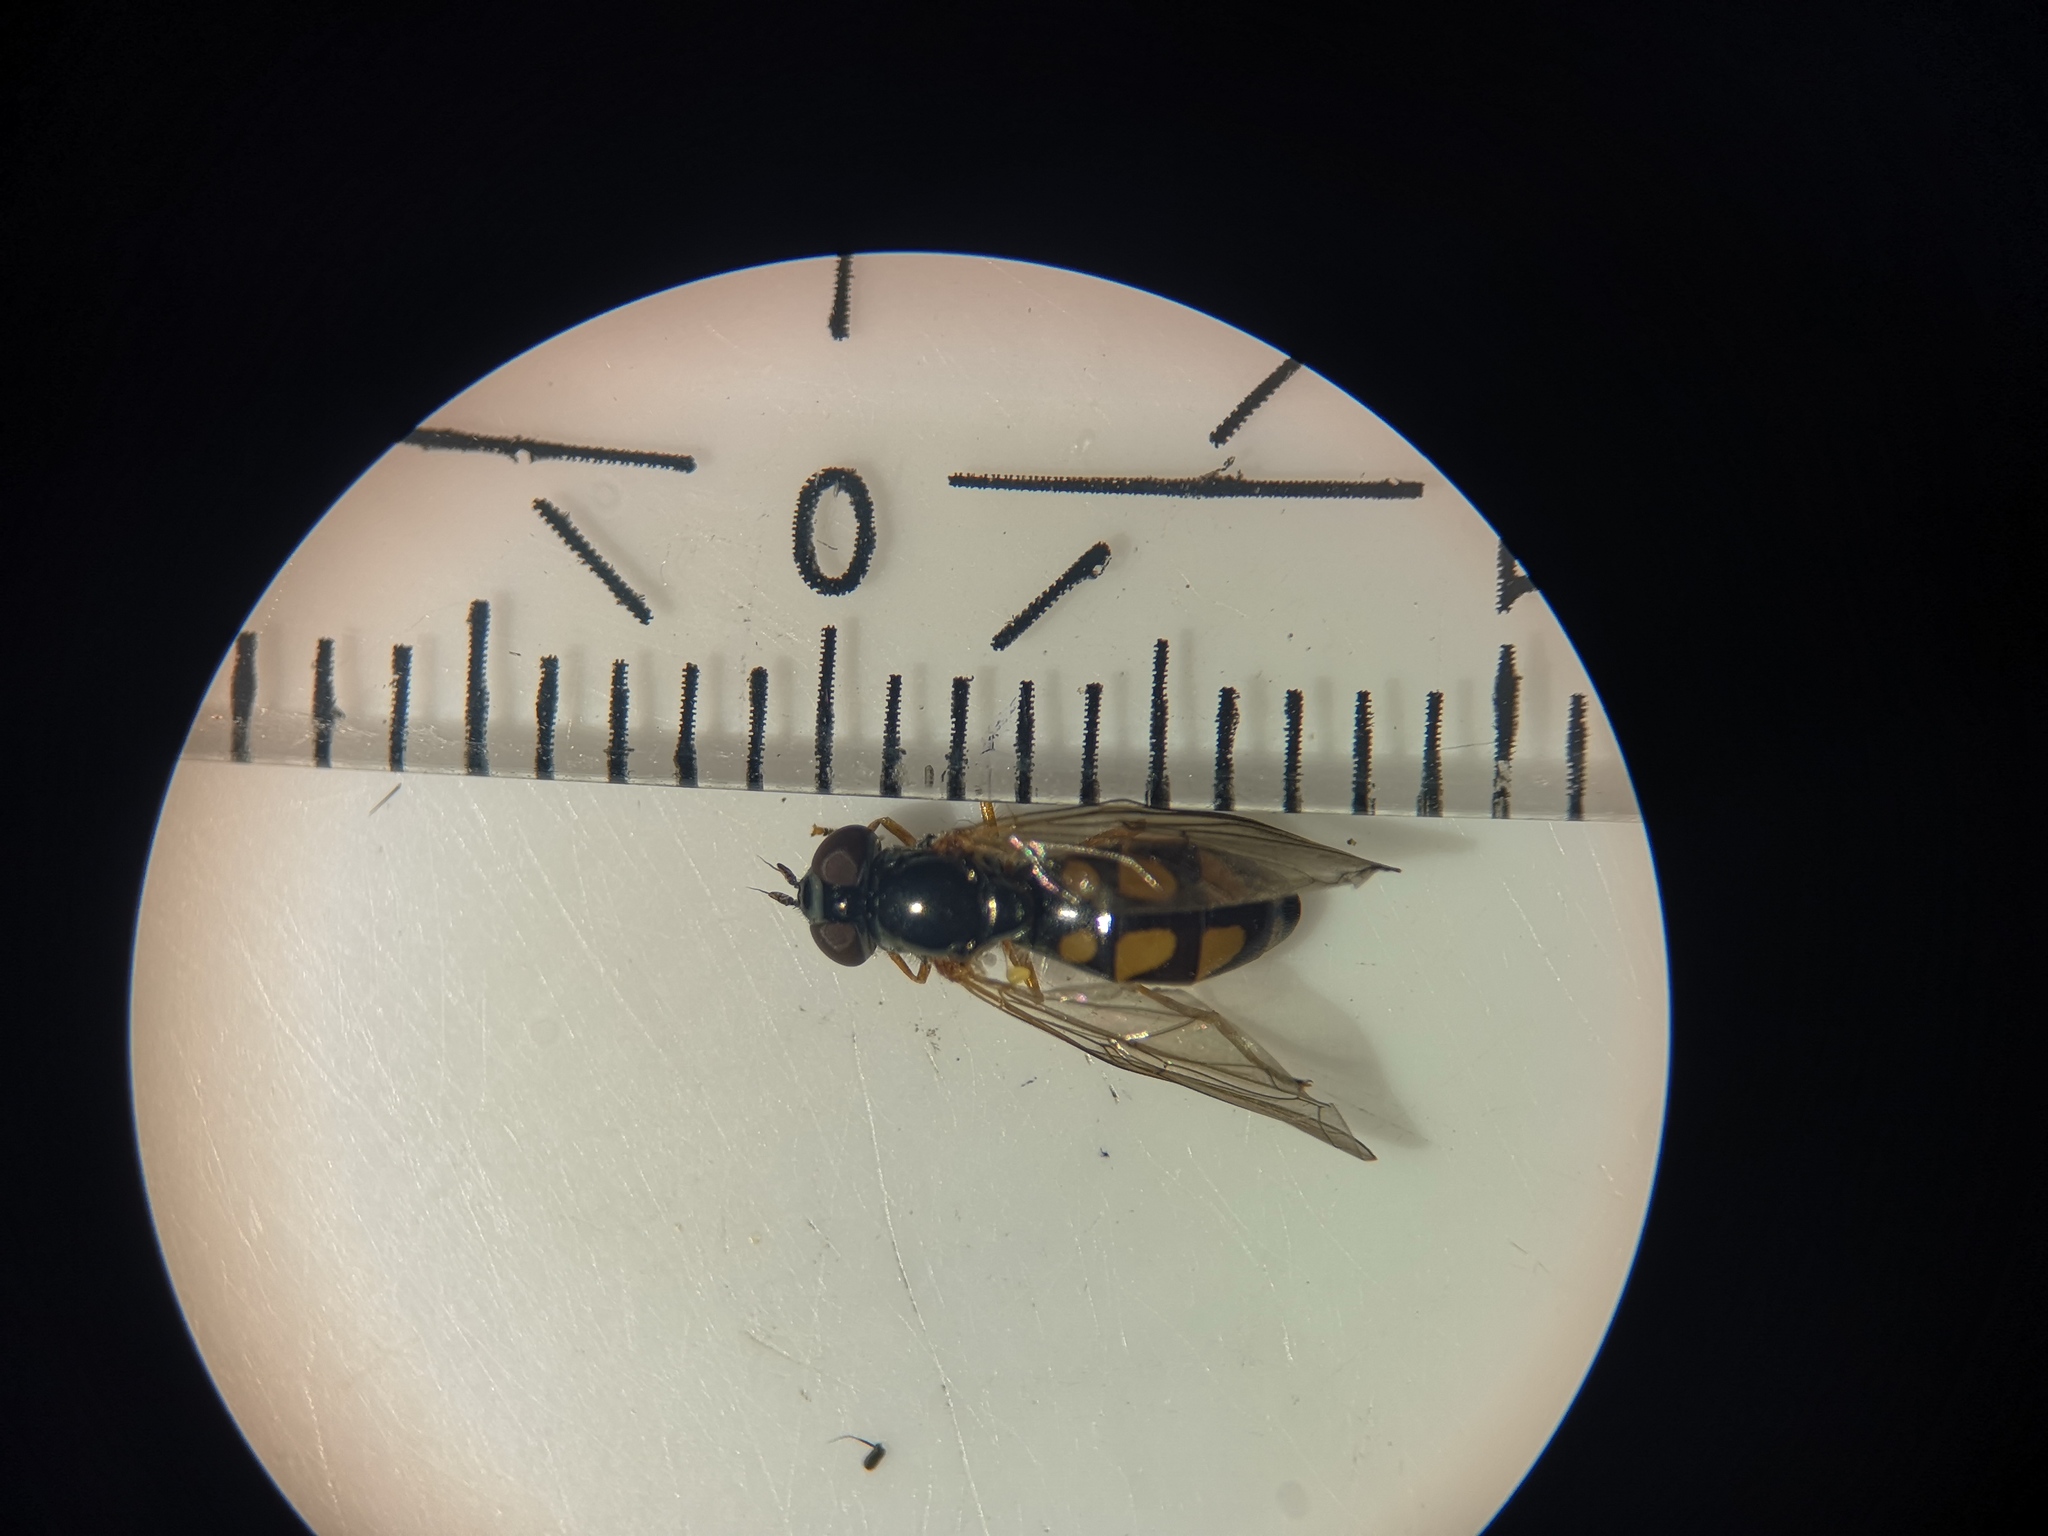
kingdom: Animalia
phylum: Arthropoda
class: Insecta
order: Diptera
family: Syrphidae
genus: Melanostoma
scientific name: Melanostoma scalare
